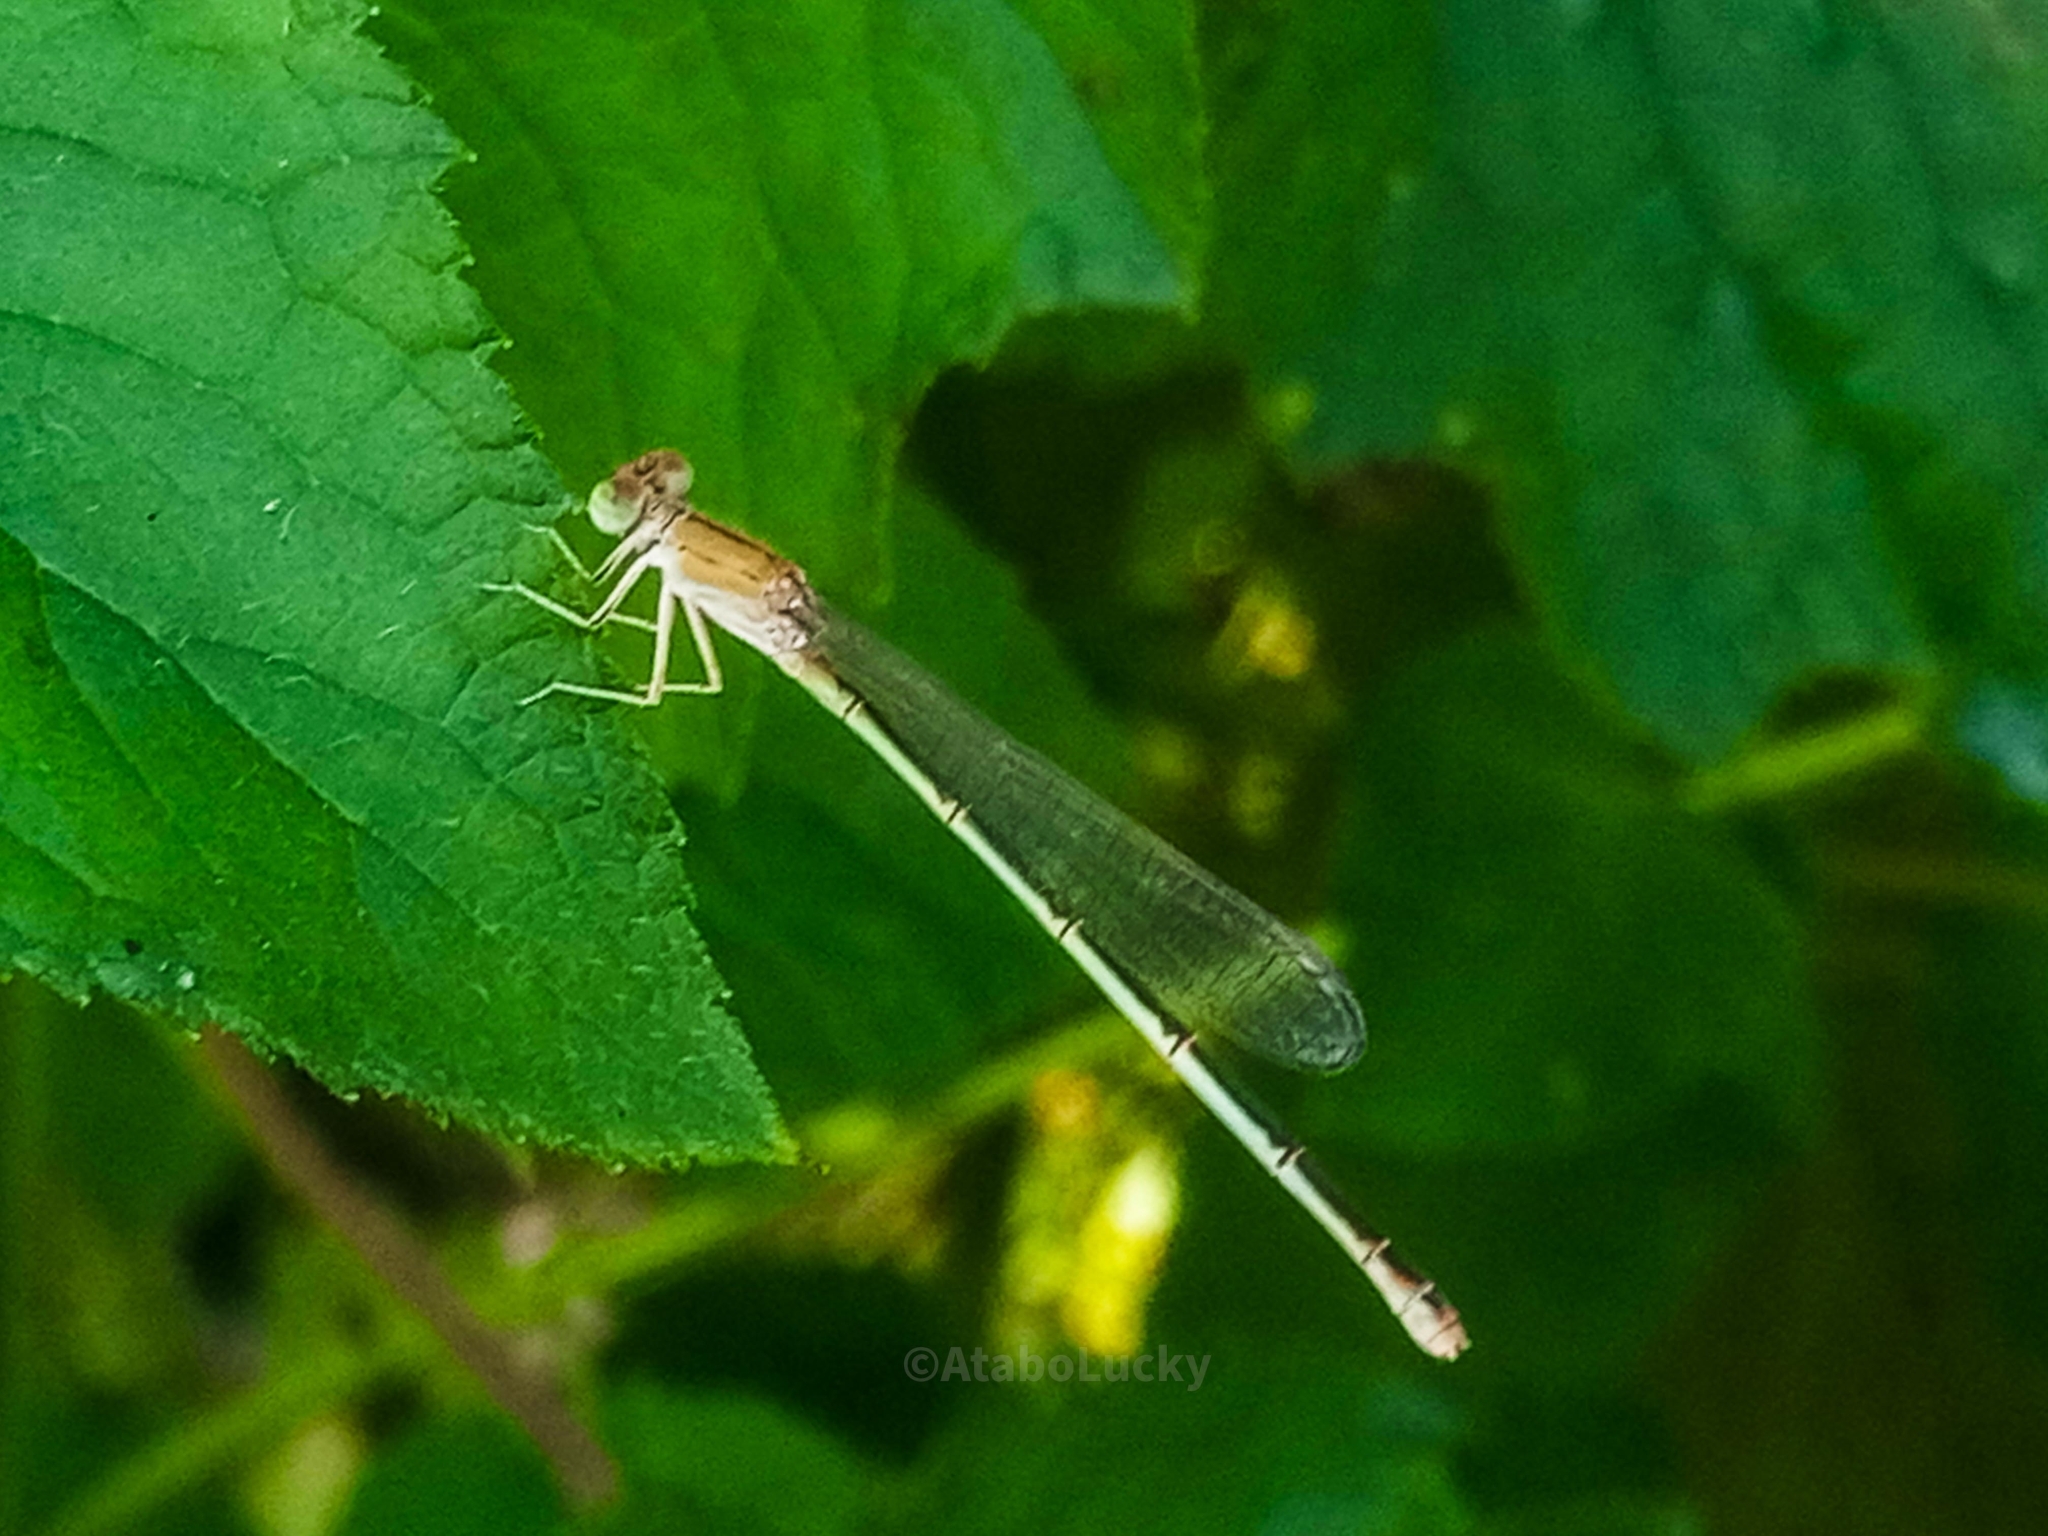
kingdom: Animalia
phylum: Arthropoda
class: Insecta
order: Odonata
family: Coenagrionidae
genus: Ceriagrion
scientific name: Ceriagrion glabrum
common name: Common pond damsel
